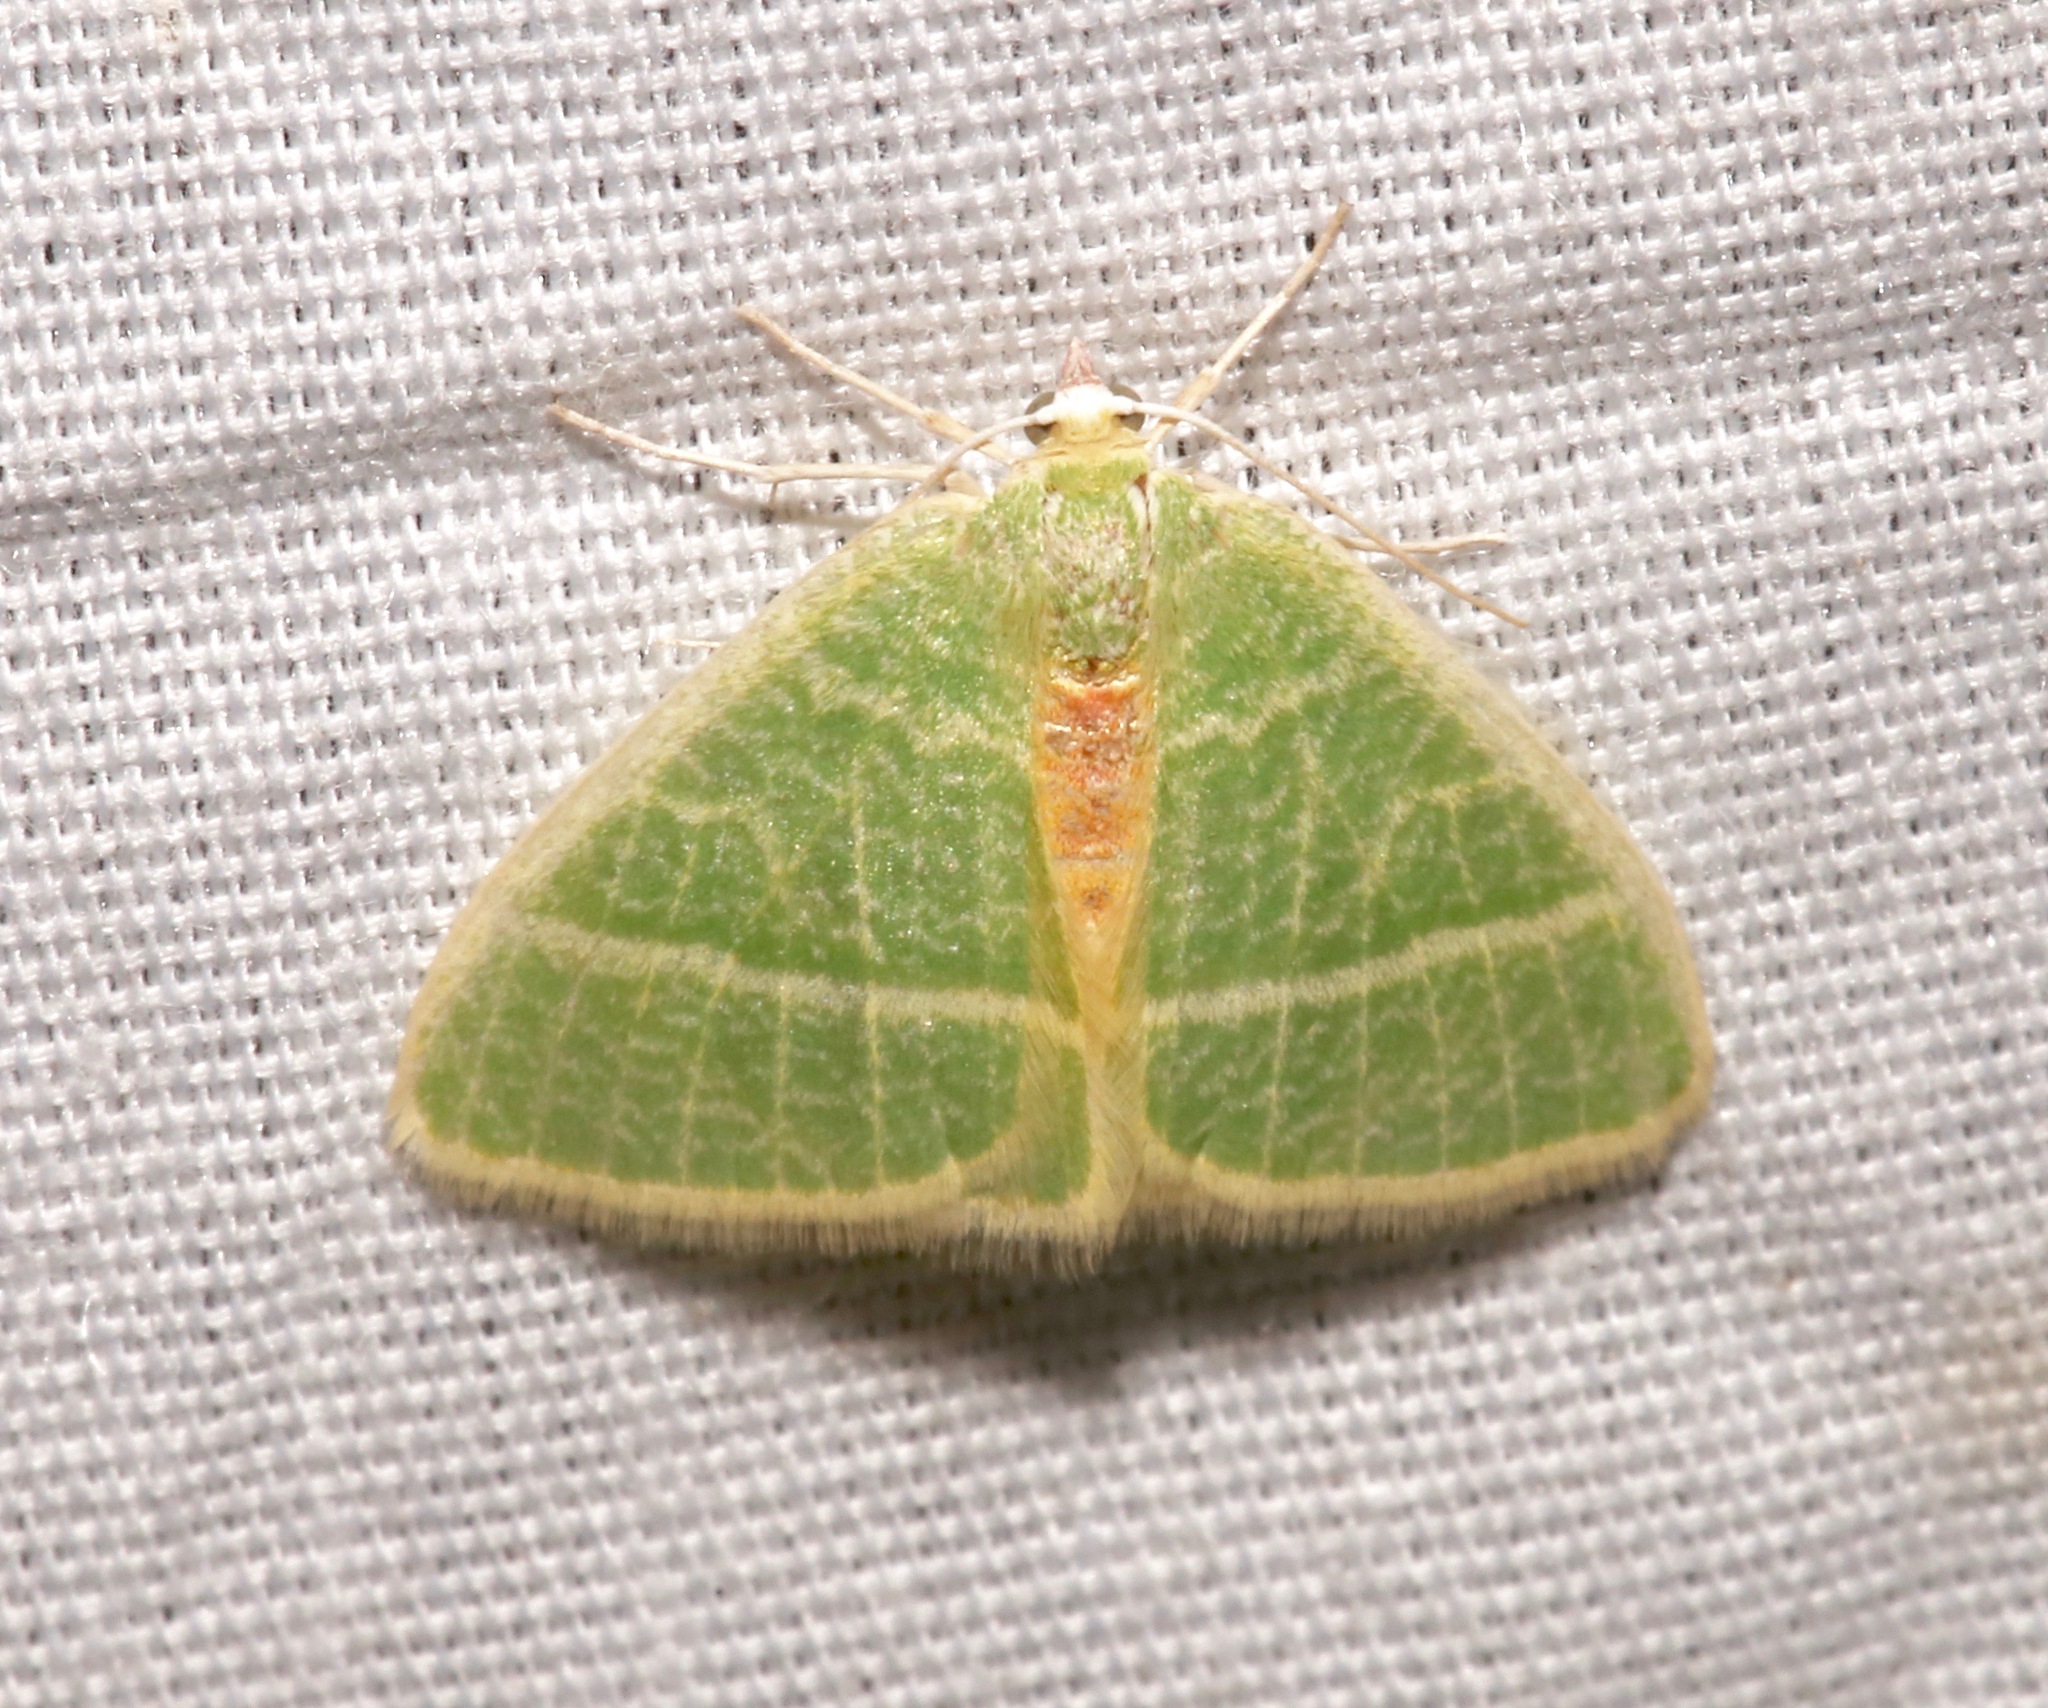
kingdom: Animalia
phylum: Arthropoda
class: Insecta
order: Lepidoptera
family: Geometridae
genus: Nemoria
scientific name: Nemoria arizonaria
